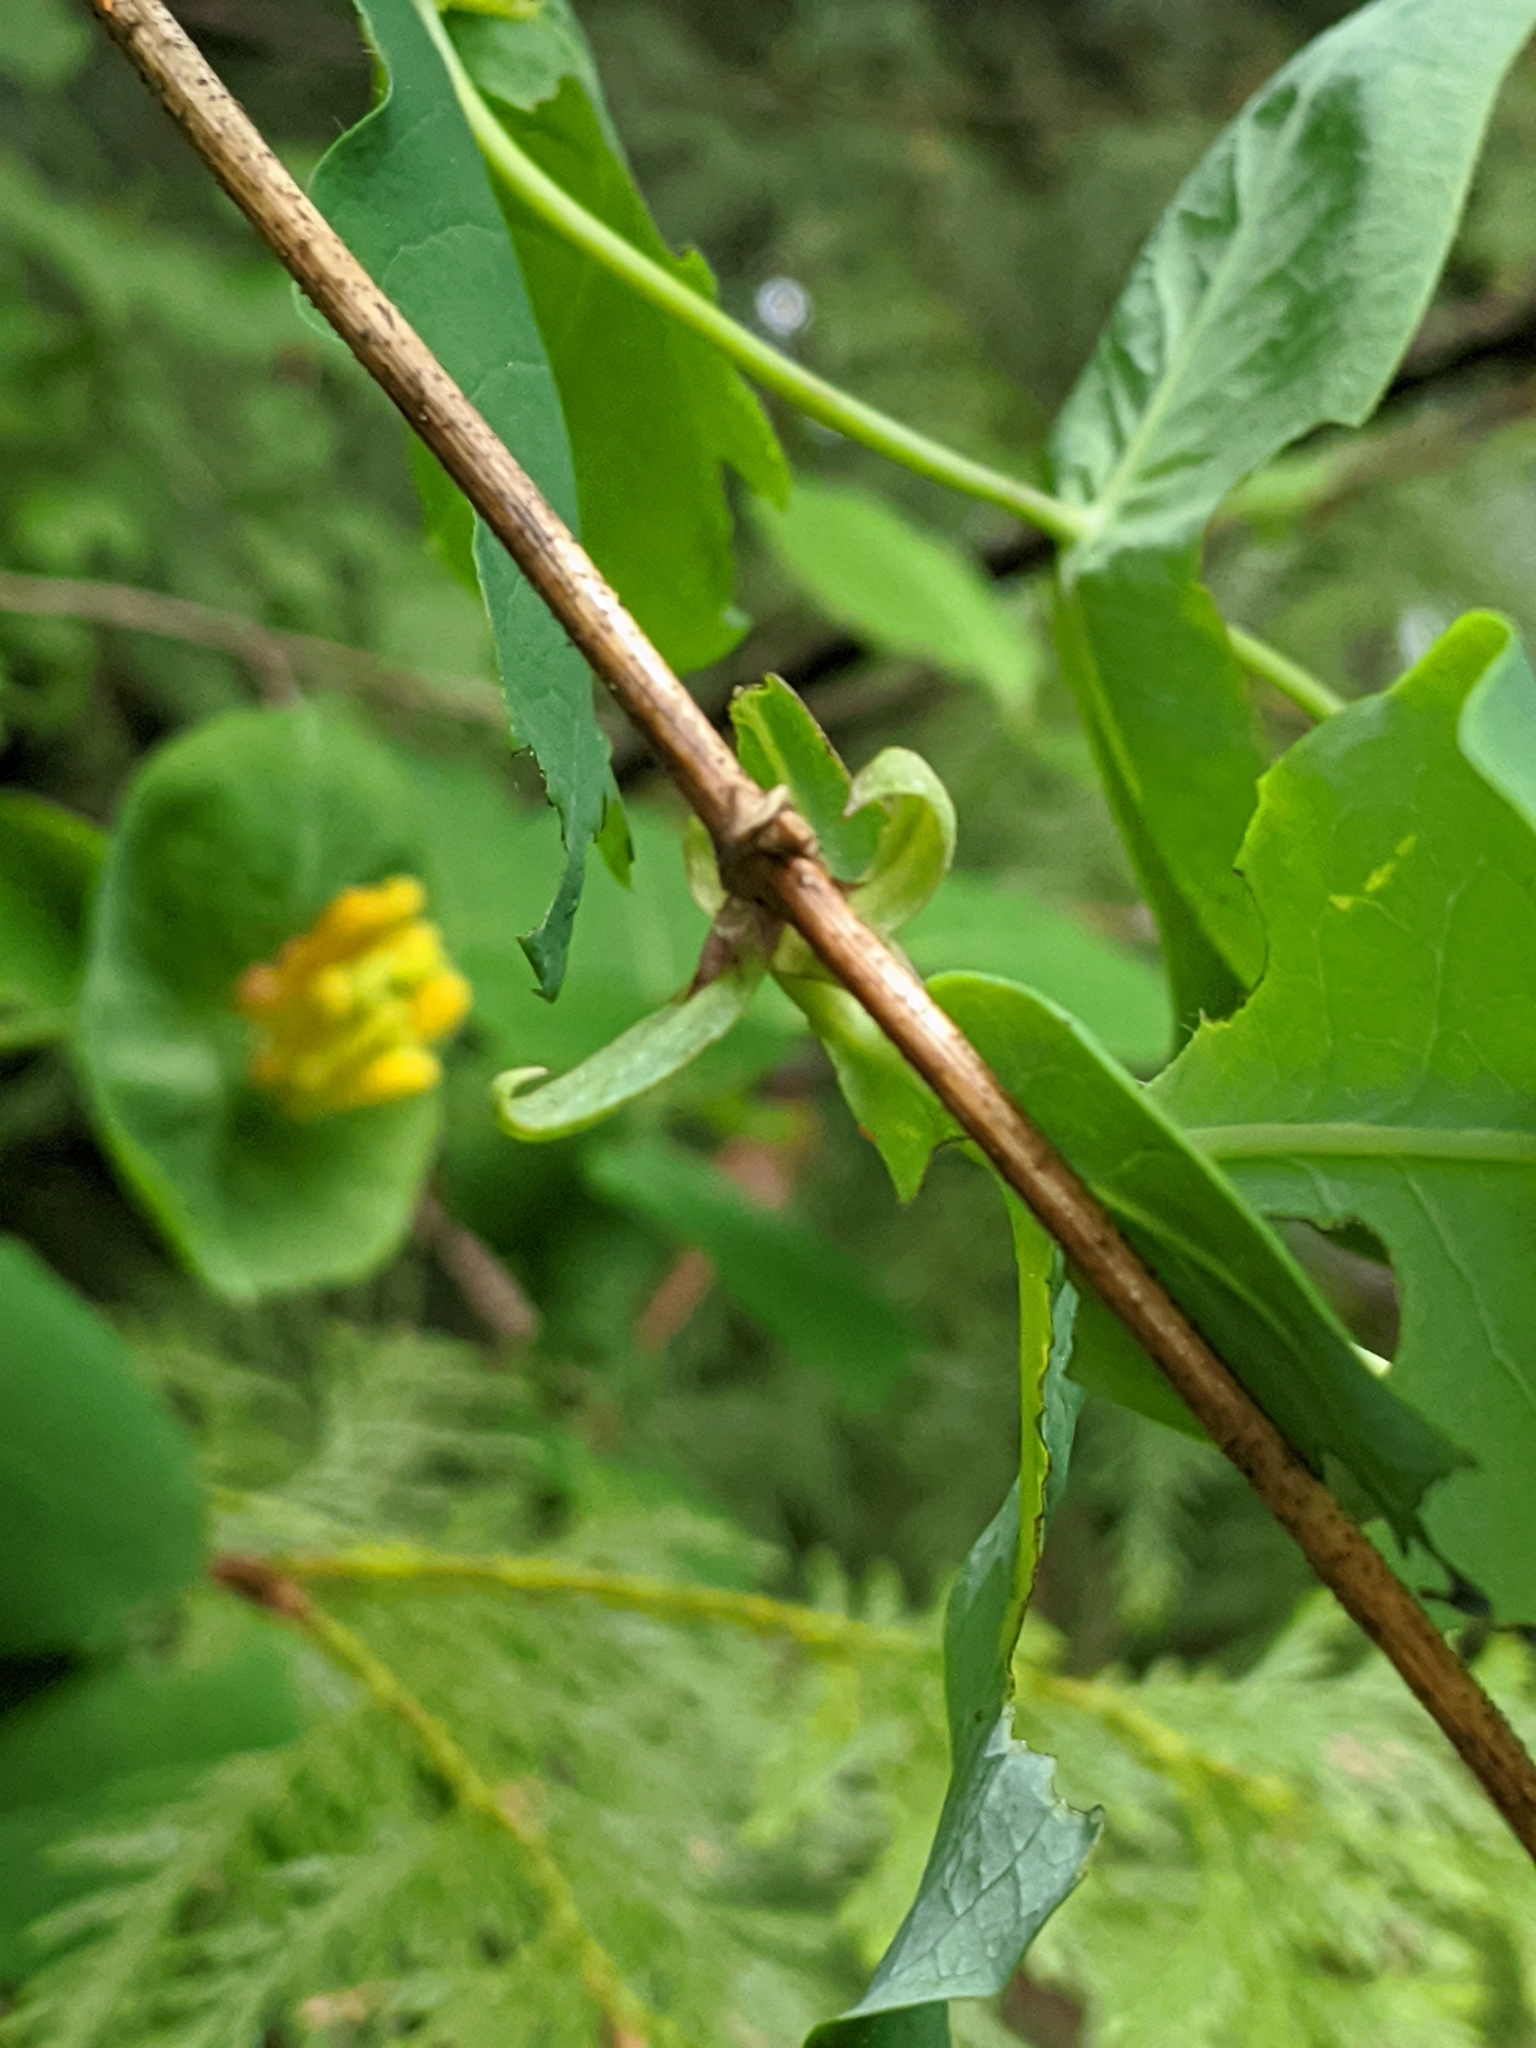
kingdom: Plantae
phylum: Tracheophyta
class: Magnoliopsida
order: Dipsacales
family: Caprifoliaceae
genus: Lonicera
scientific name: Lonicera ciliosa
